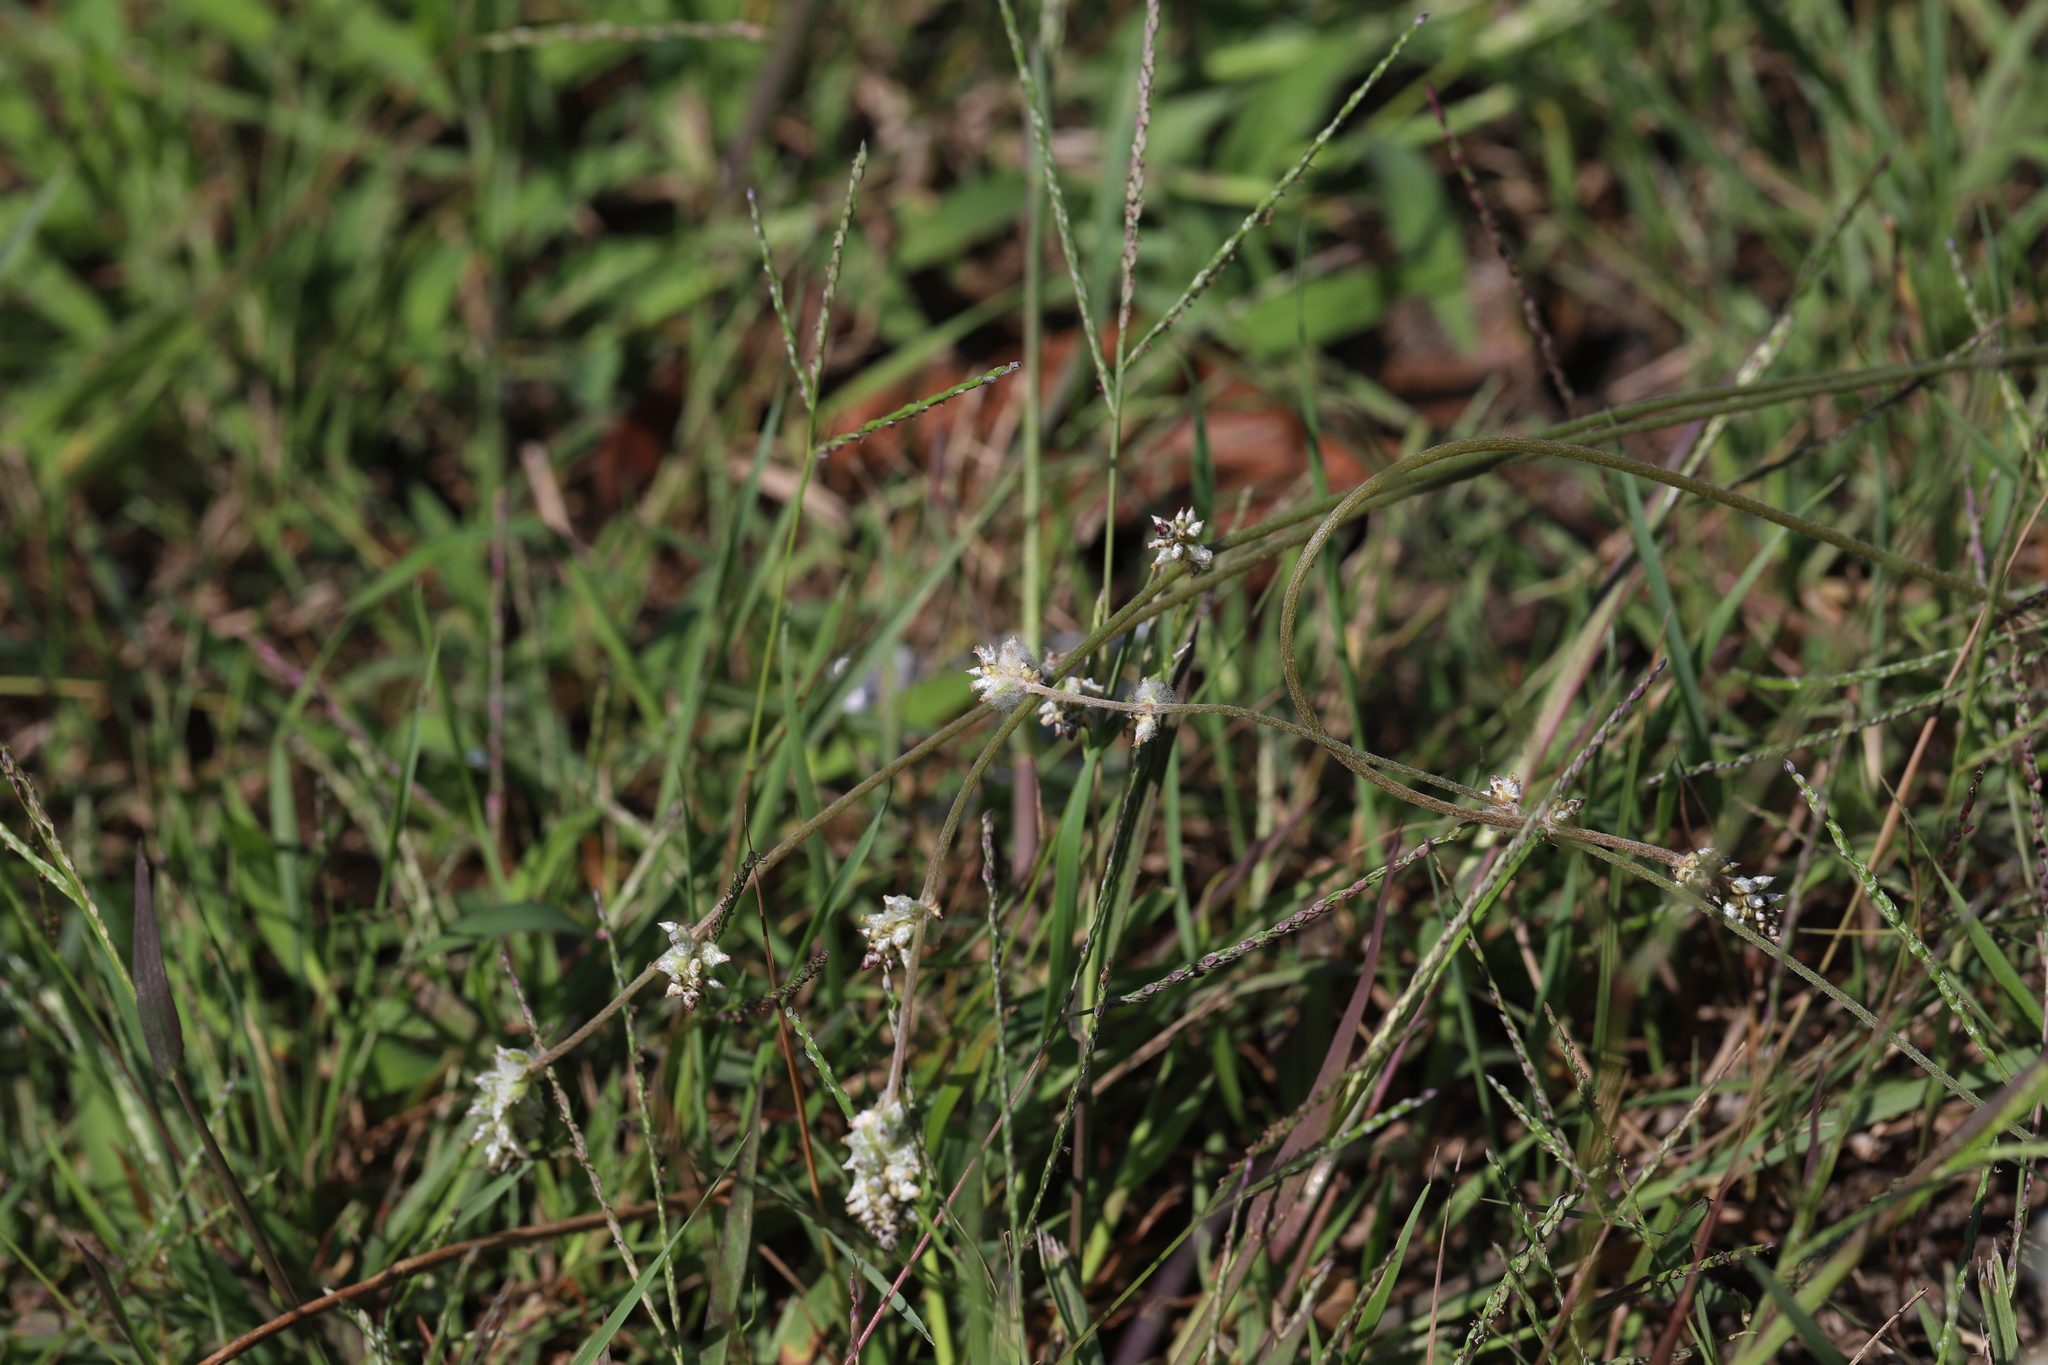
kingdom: Plantae
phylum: Tracheophyta
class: Magnoliopsida
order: Caryophyllales
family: Amaranthaceae
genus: Froelichia
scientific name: Froelichia gracilis
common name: Slender cottonweed
